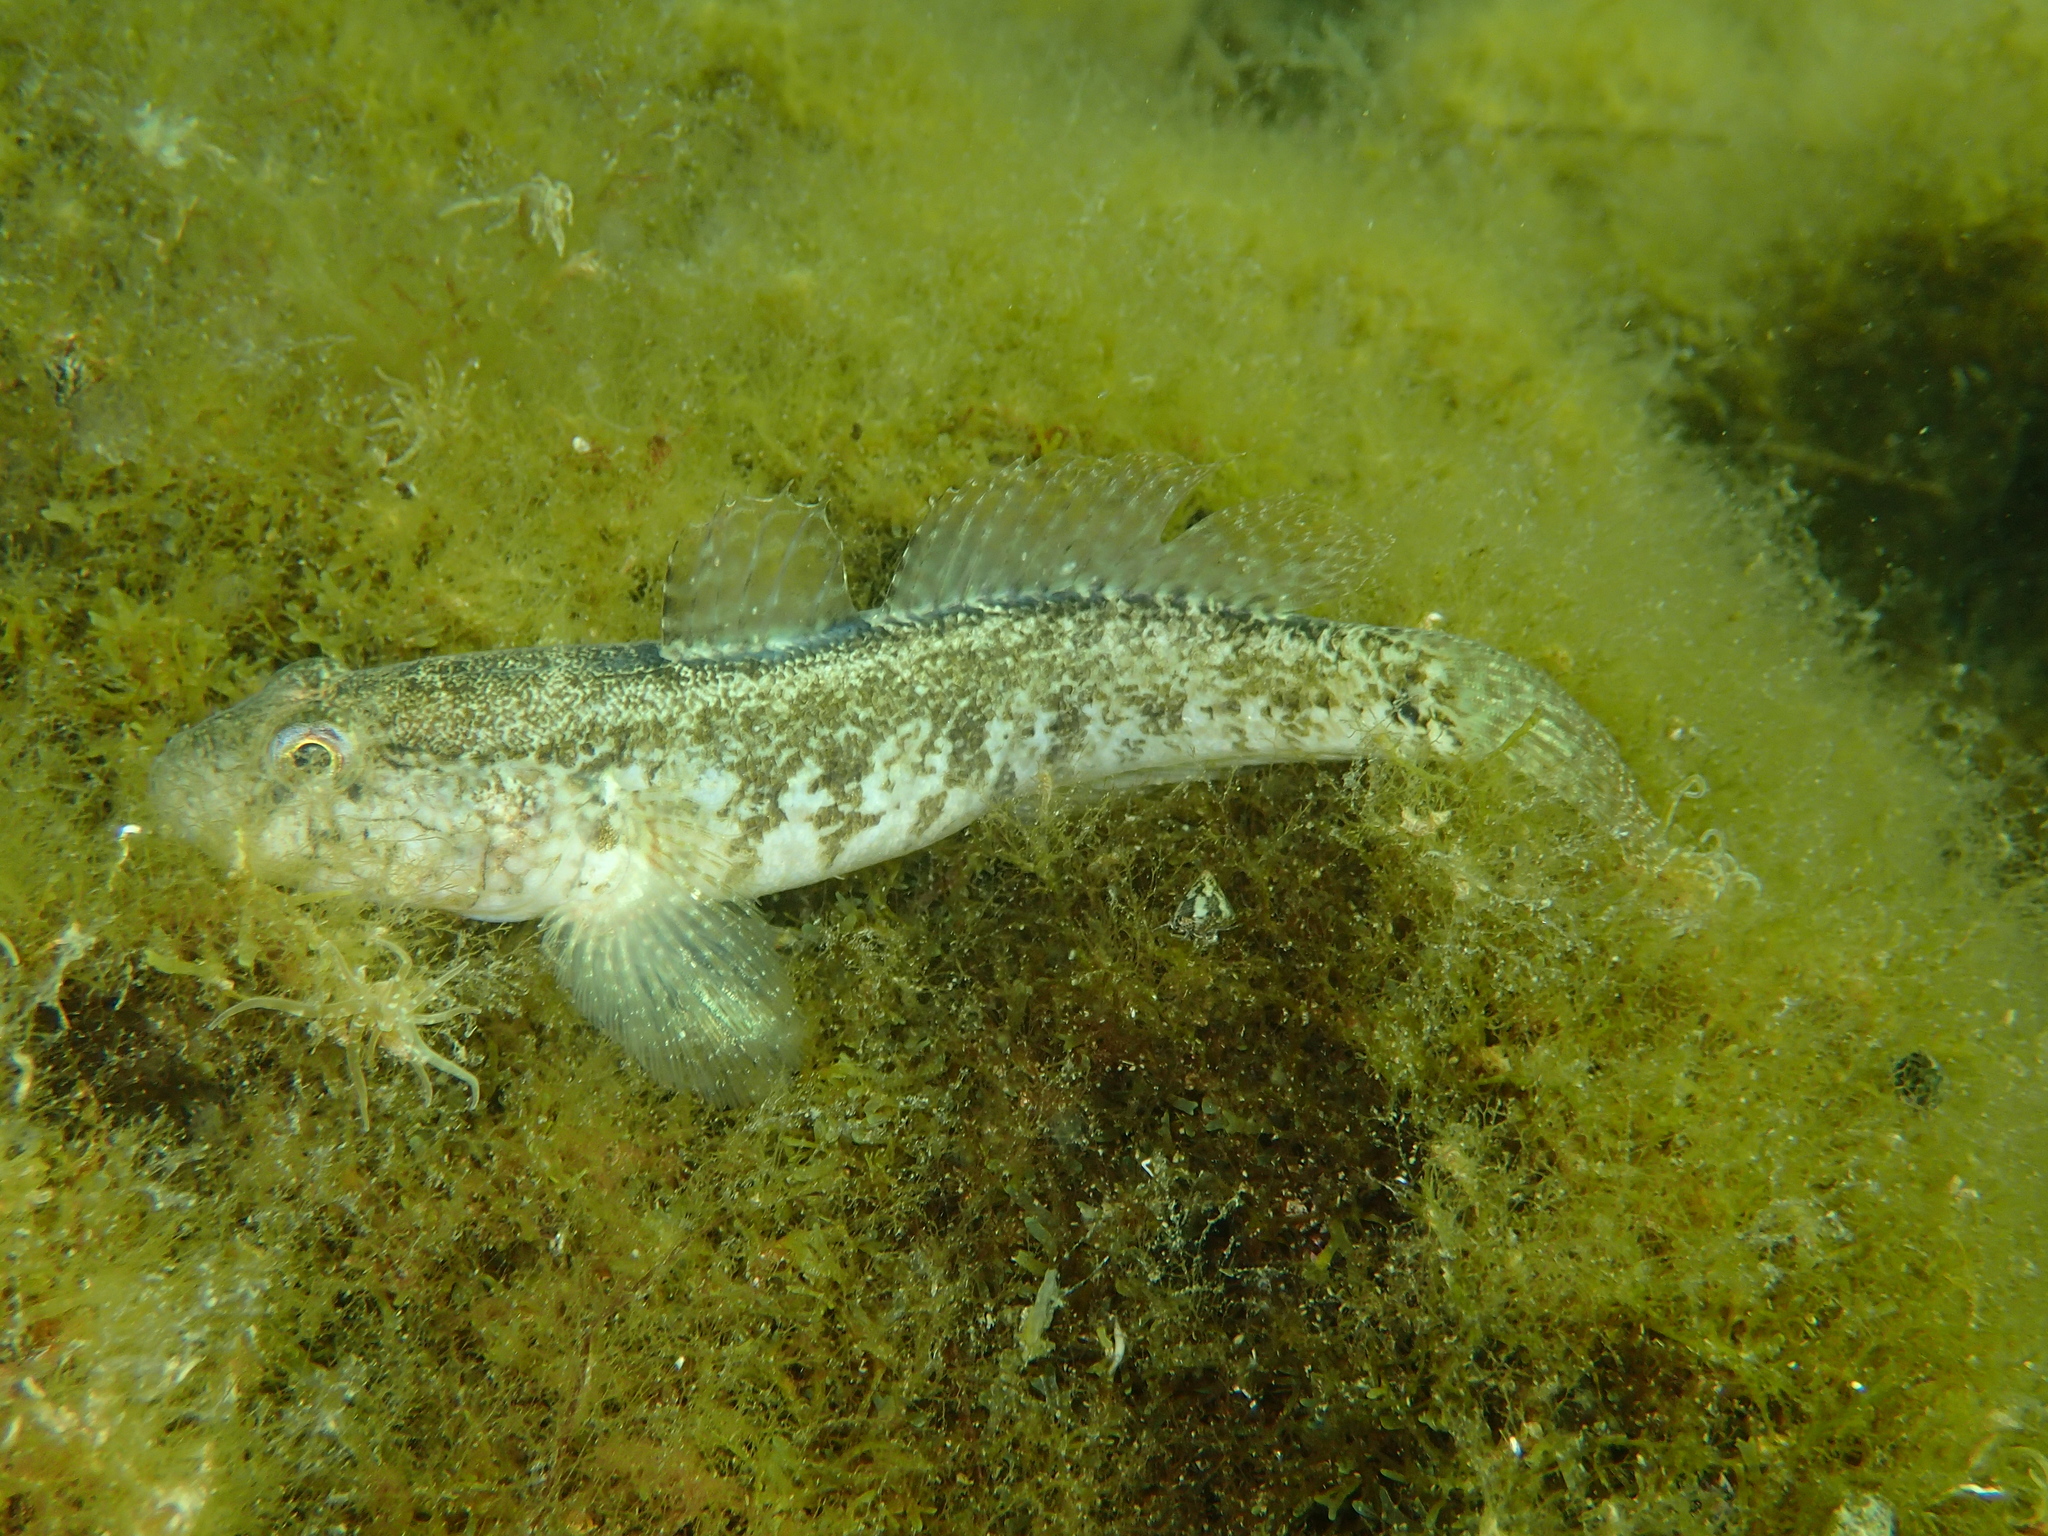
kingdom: Animalia
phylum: Chordata
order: Perciformes
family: Gobiidae
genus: Zosterisessor
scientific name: Zosterisessor ophiocephalus
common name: Grass goby
